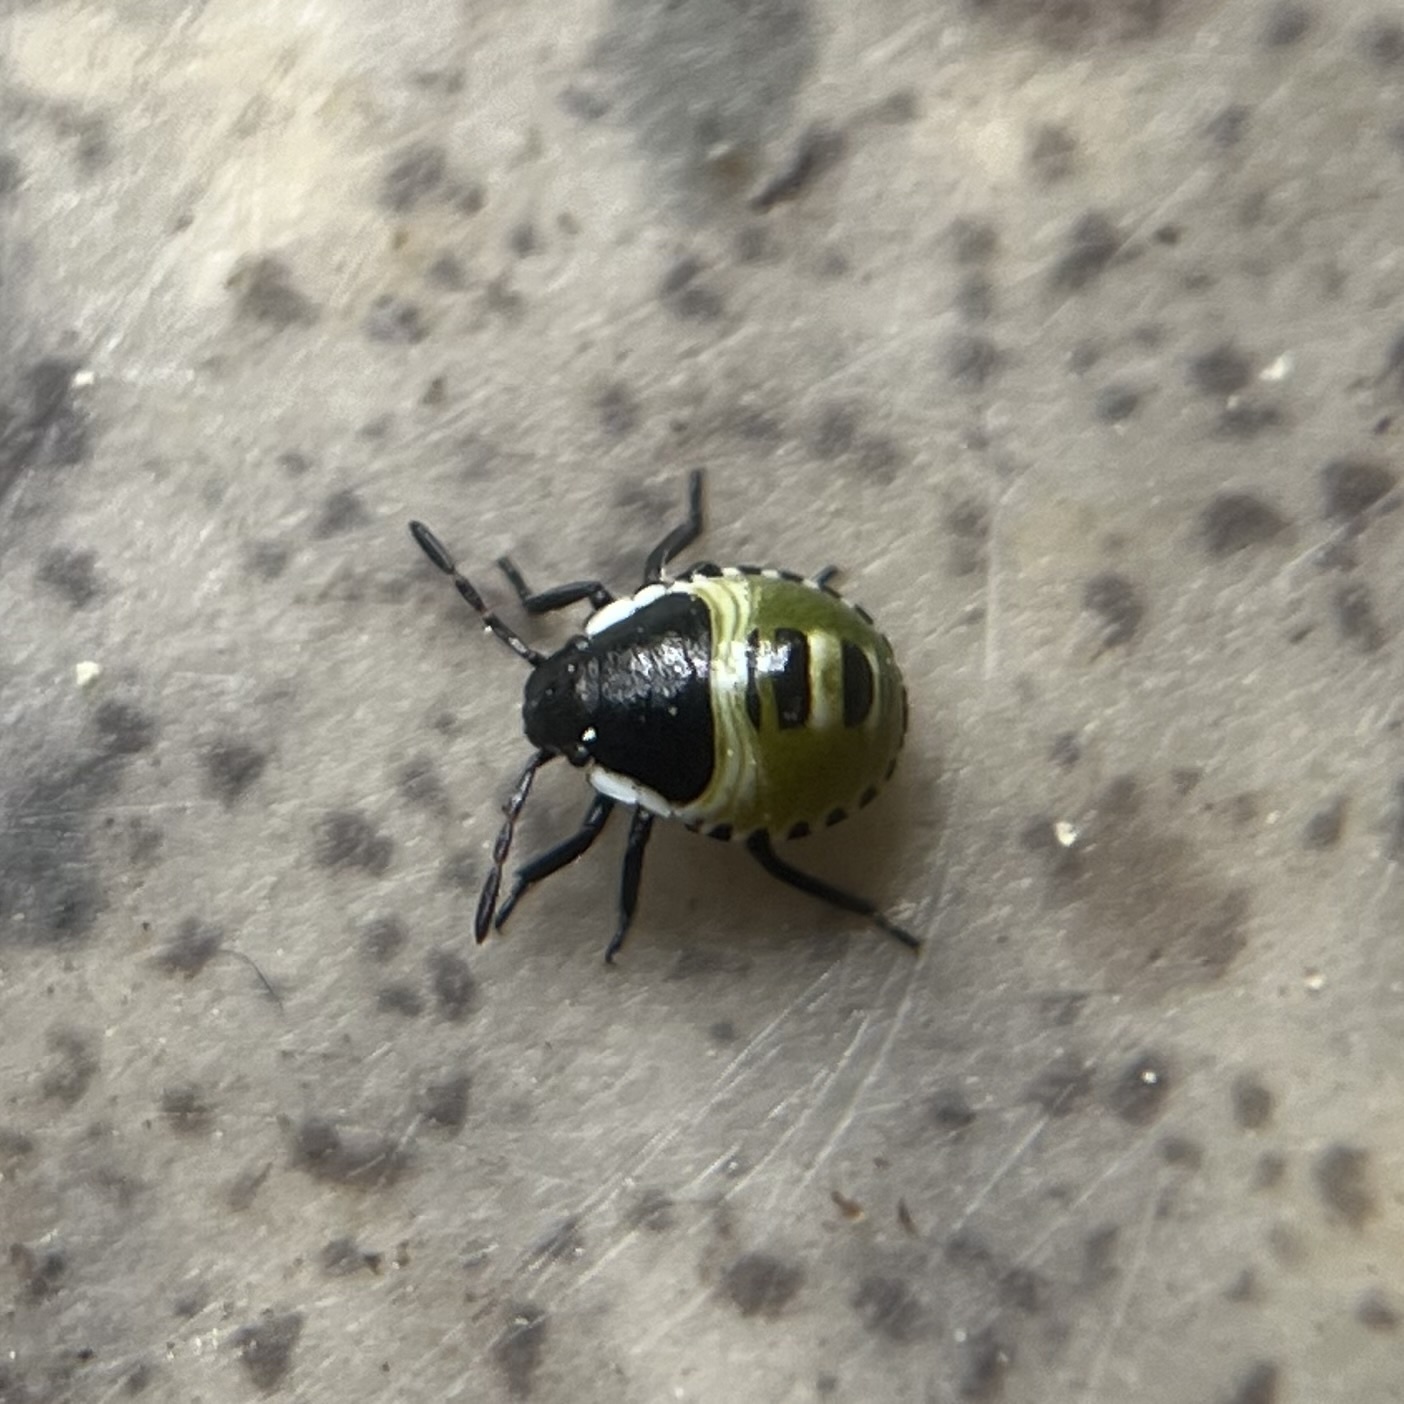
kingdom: Animalia
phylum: Arthropoda
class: Insecta
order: Hemiptera
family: Pentatomidae
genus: Palomena
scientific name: Palomena prasina
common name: Green shieldbug
